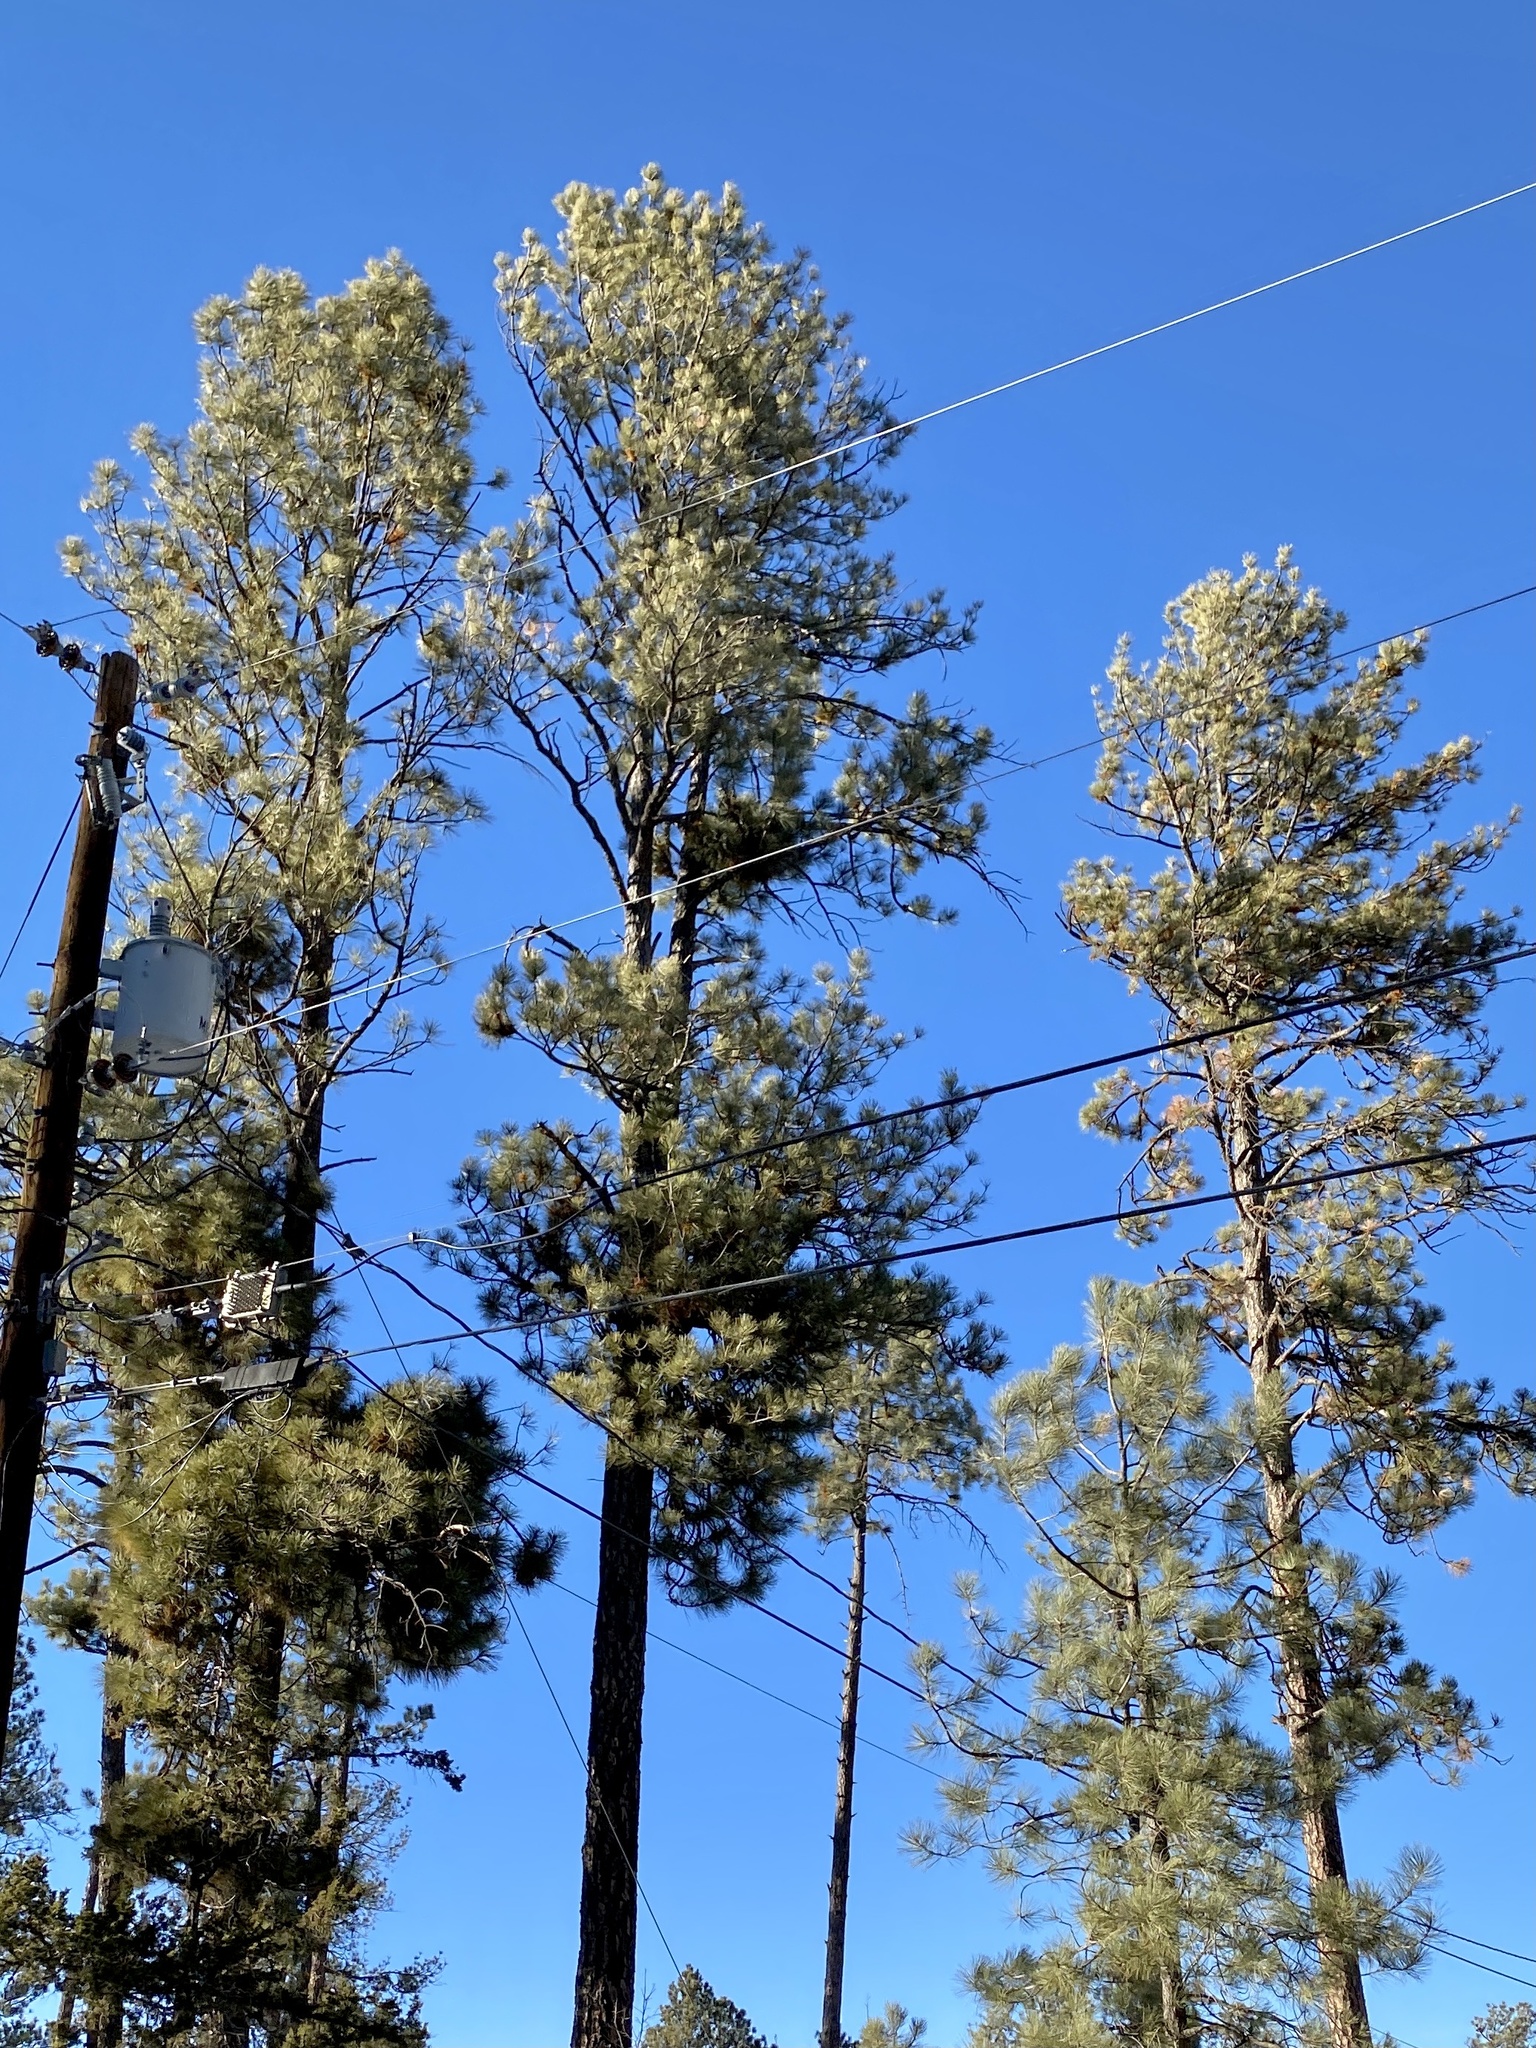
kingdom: Plantae
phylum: Tracheophyta
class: Pinopsida
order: Pinales
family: Pinaceae
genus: Pinus
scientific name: Pinus ponderosa
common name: Western yellow-pine
